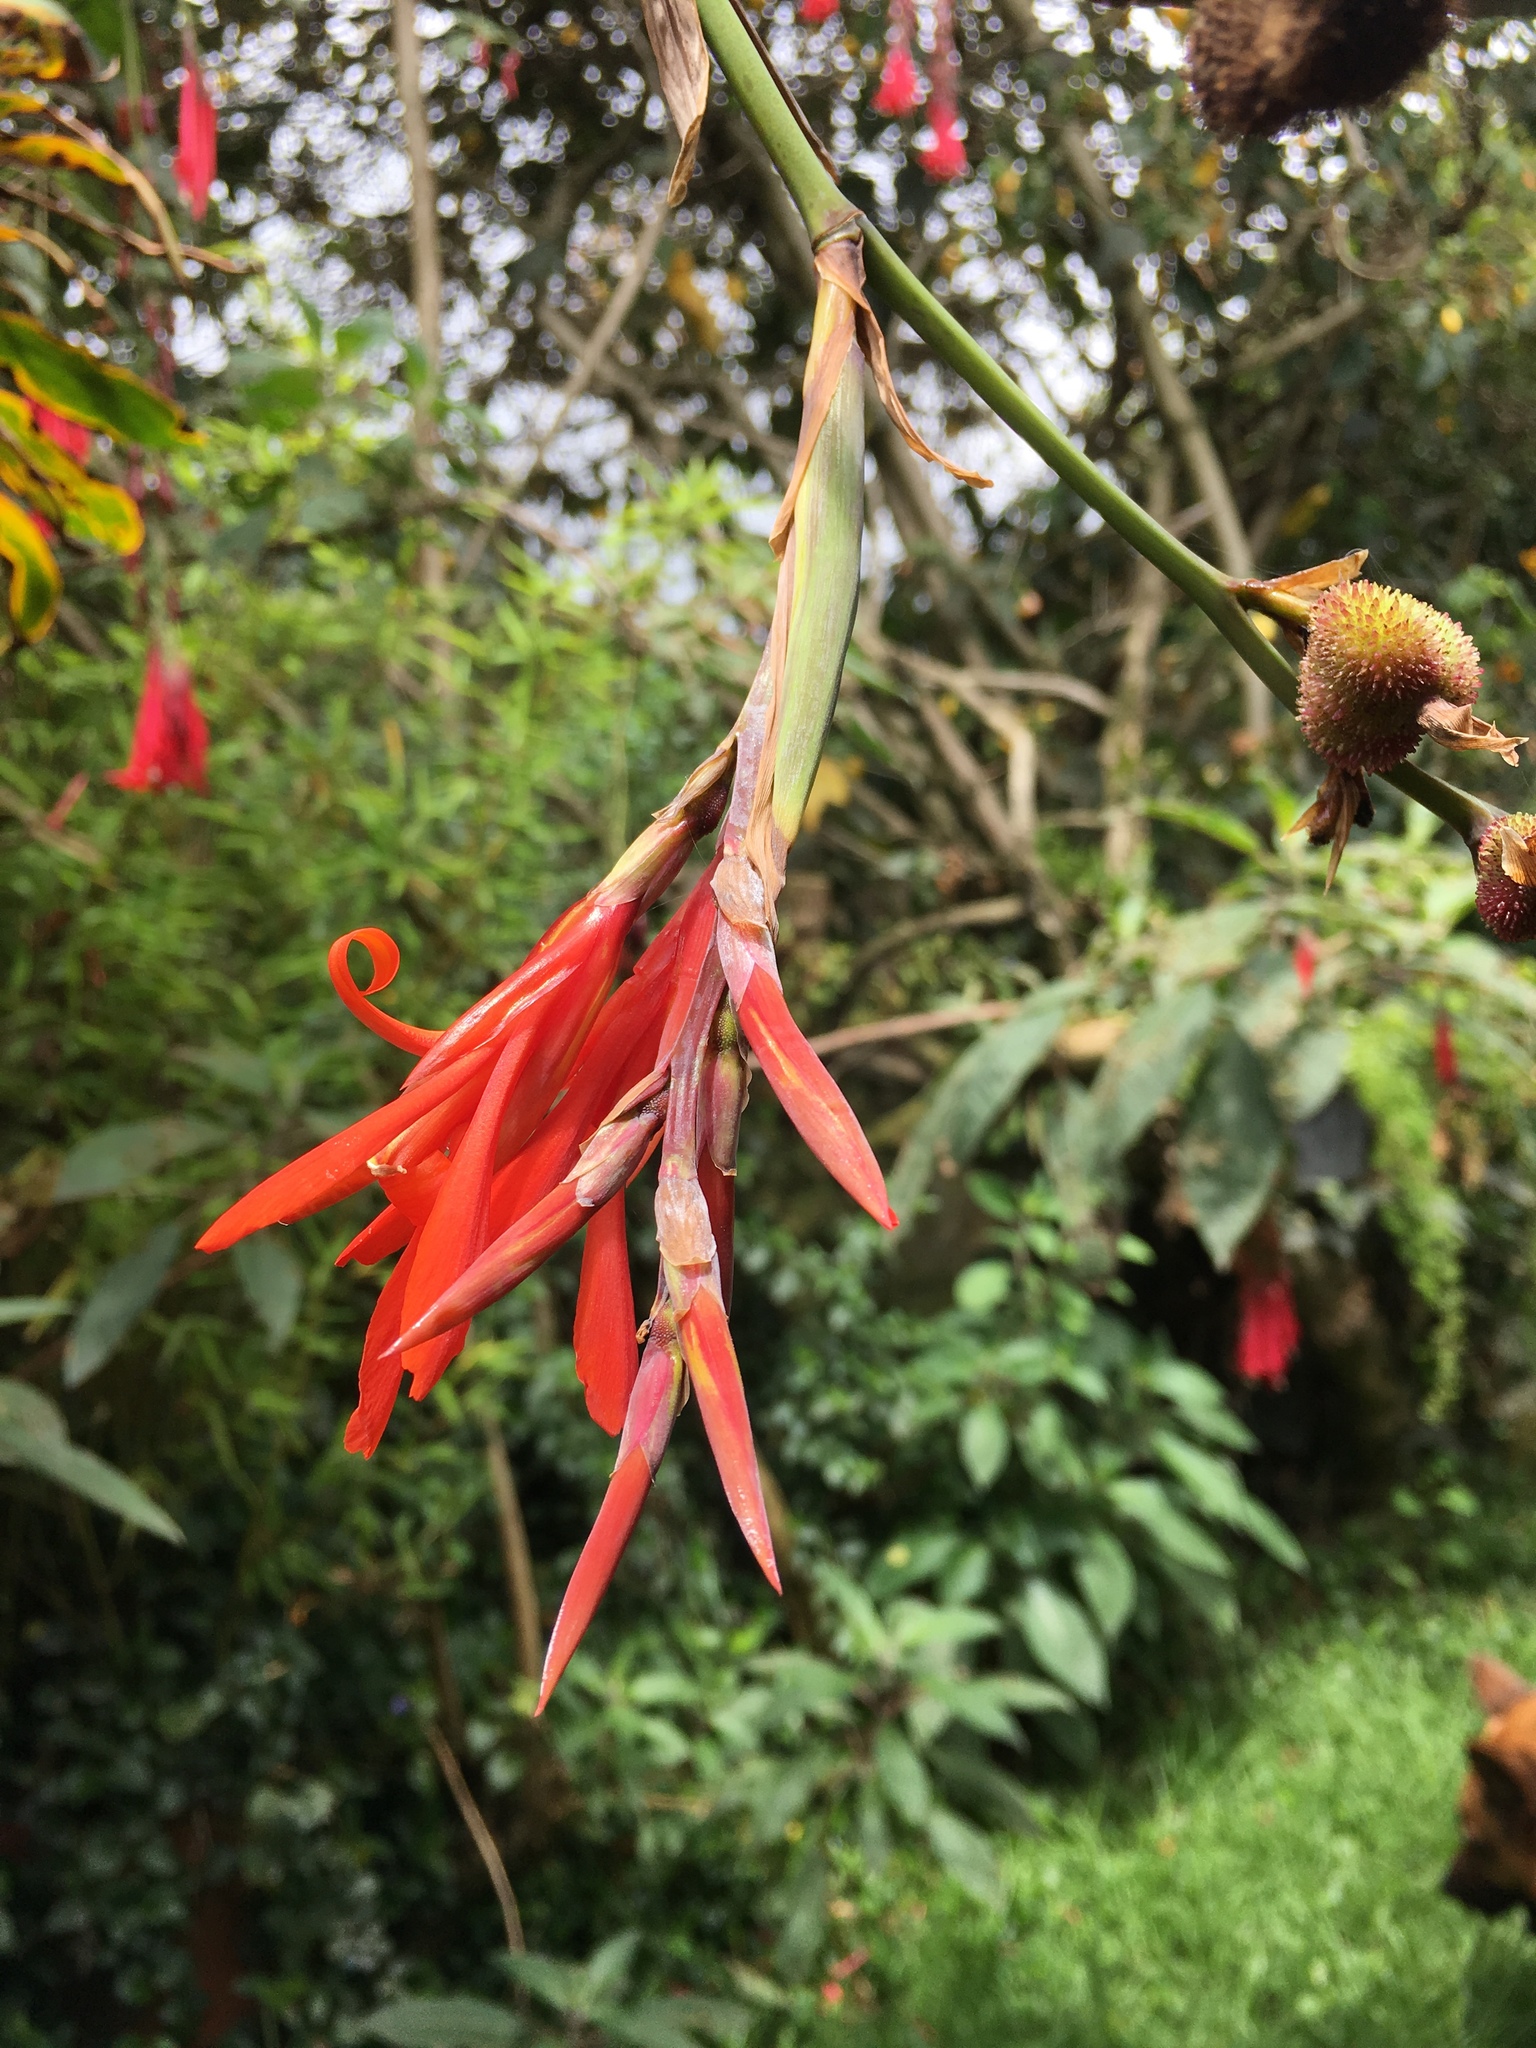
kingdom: Plantae
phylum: Tracheophyta
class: Liliopsida
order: Zingiberales
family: Cannaceae
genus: Canna
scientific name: Canna indica
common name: Indian shot
